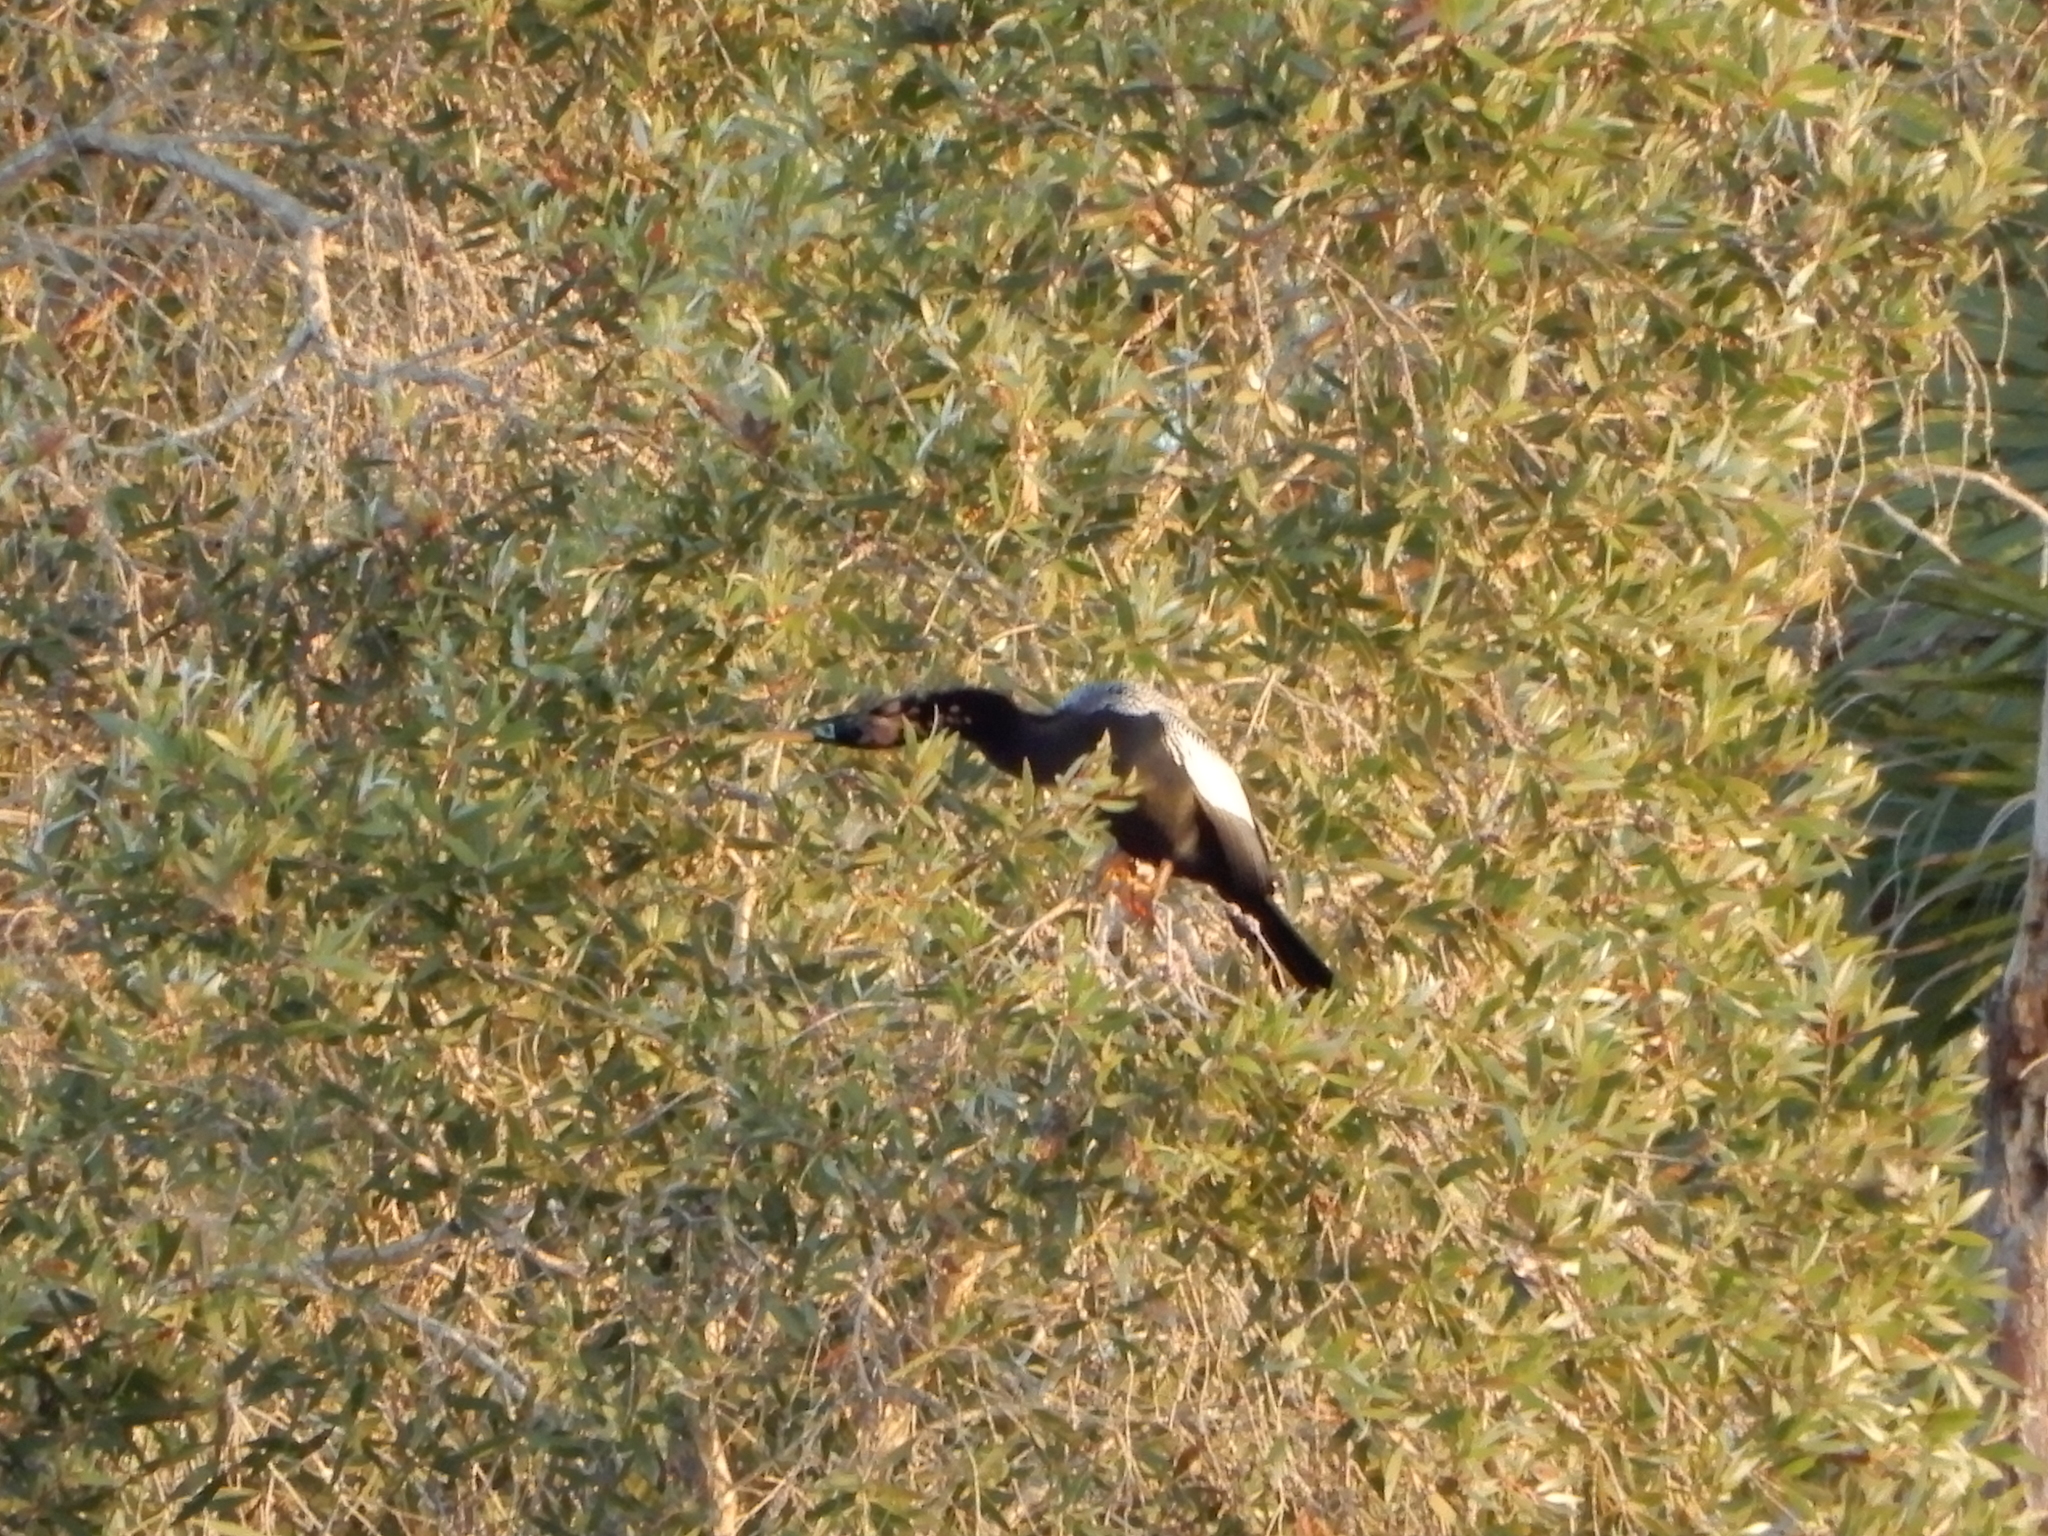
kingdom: Animalia
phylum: Chordata
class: Aves
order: Suliformes
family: Anhingidae
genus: Anhinga
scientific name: Anhinga anhinga
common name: Anhinga
